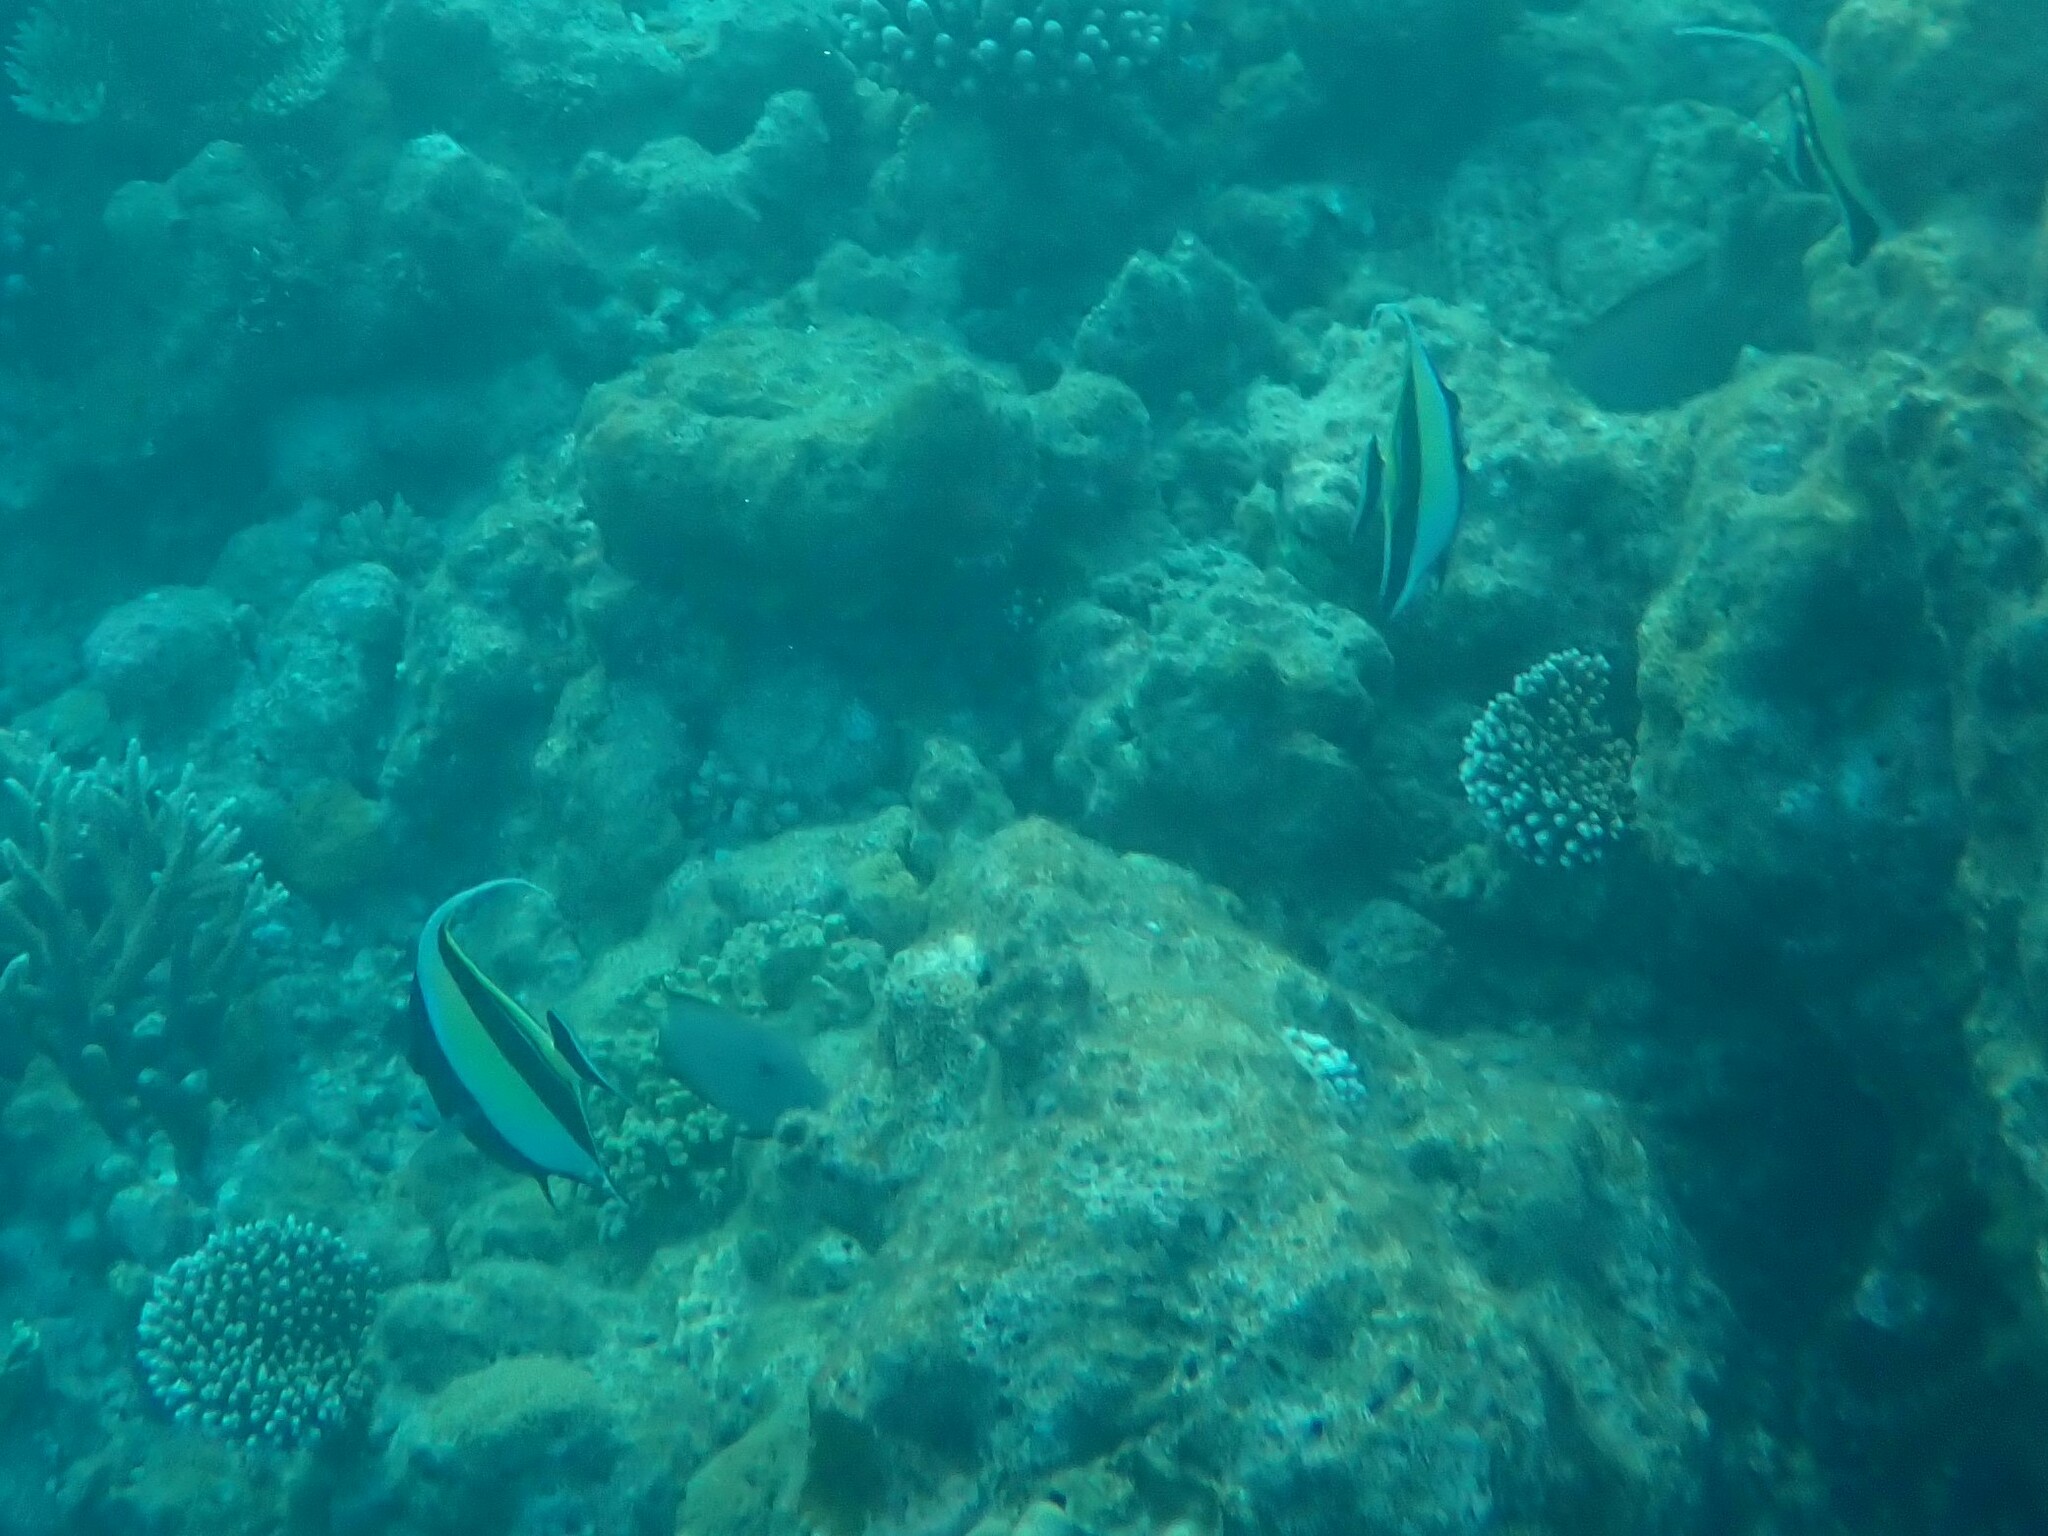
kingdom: Animalia
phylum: Chordata
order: Perciformes
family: Zanclidae
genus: Zanclus
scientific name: Zanclus cornutus
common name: Moorish idol
